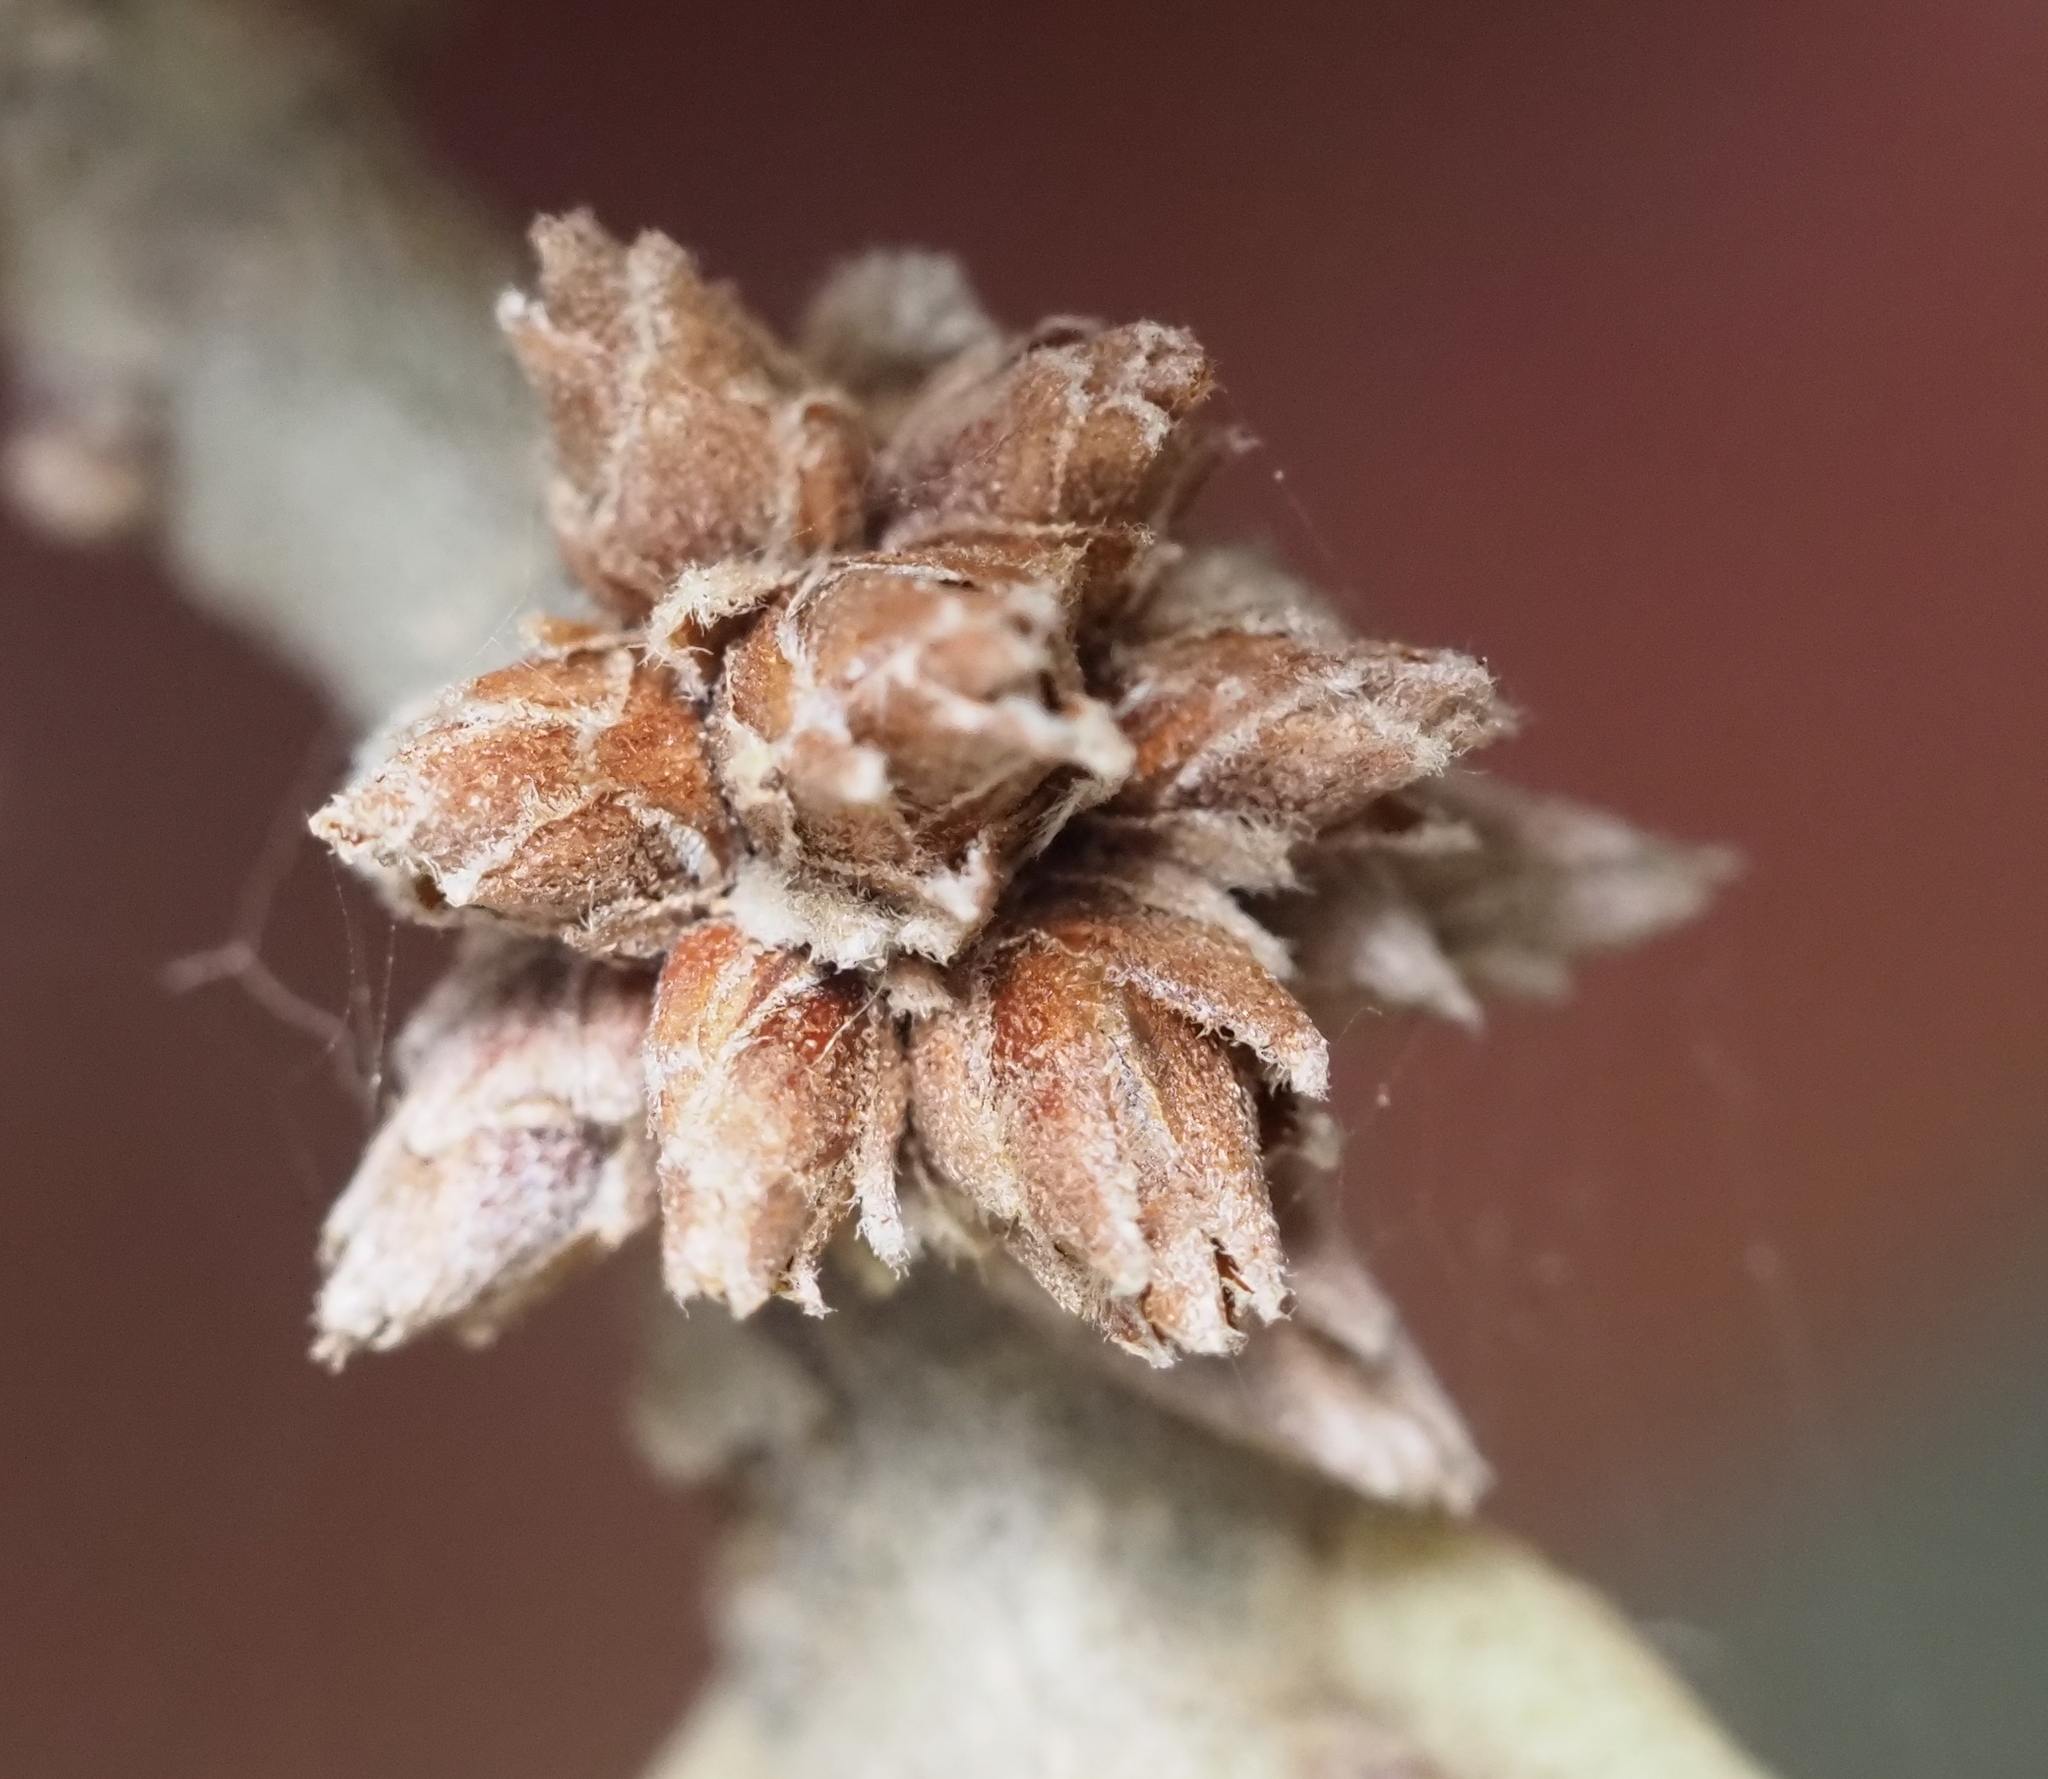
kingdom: Animalia
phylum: Arthropoda
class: Insecta
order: Diptera
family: Cecidomyiidae
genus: Arnoldiola
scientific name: Arnoldiola atra
